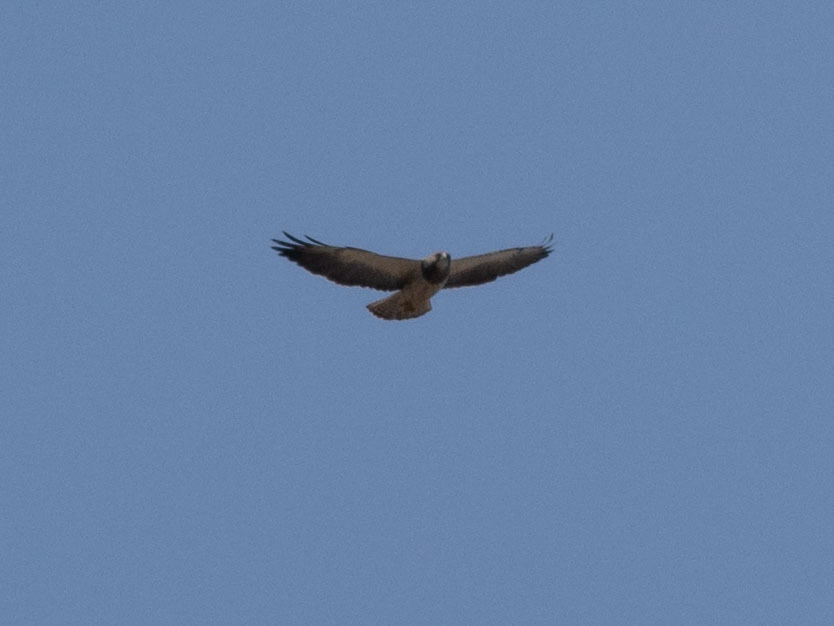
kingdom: Animalia
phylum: Chordata
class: Aves
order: Accipitriformes
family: Accipitridae
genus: Buteo
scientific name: Buteo swainsoni
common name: Swainson's hawk
